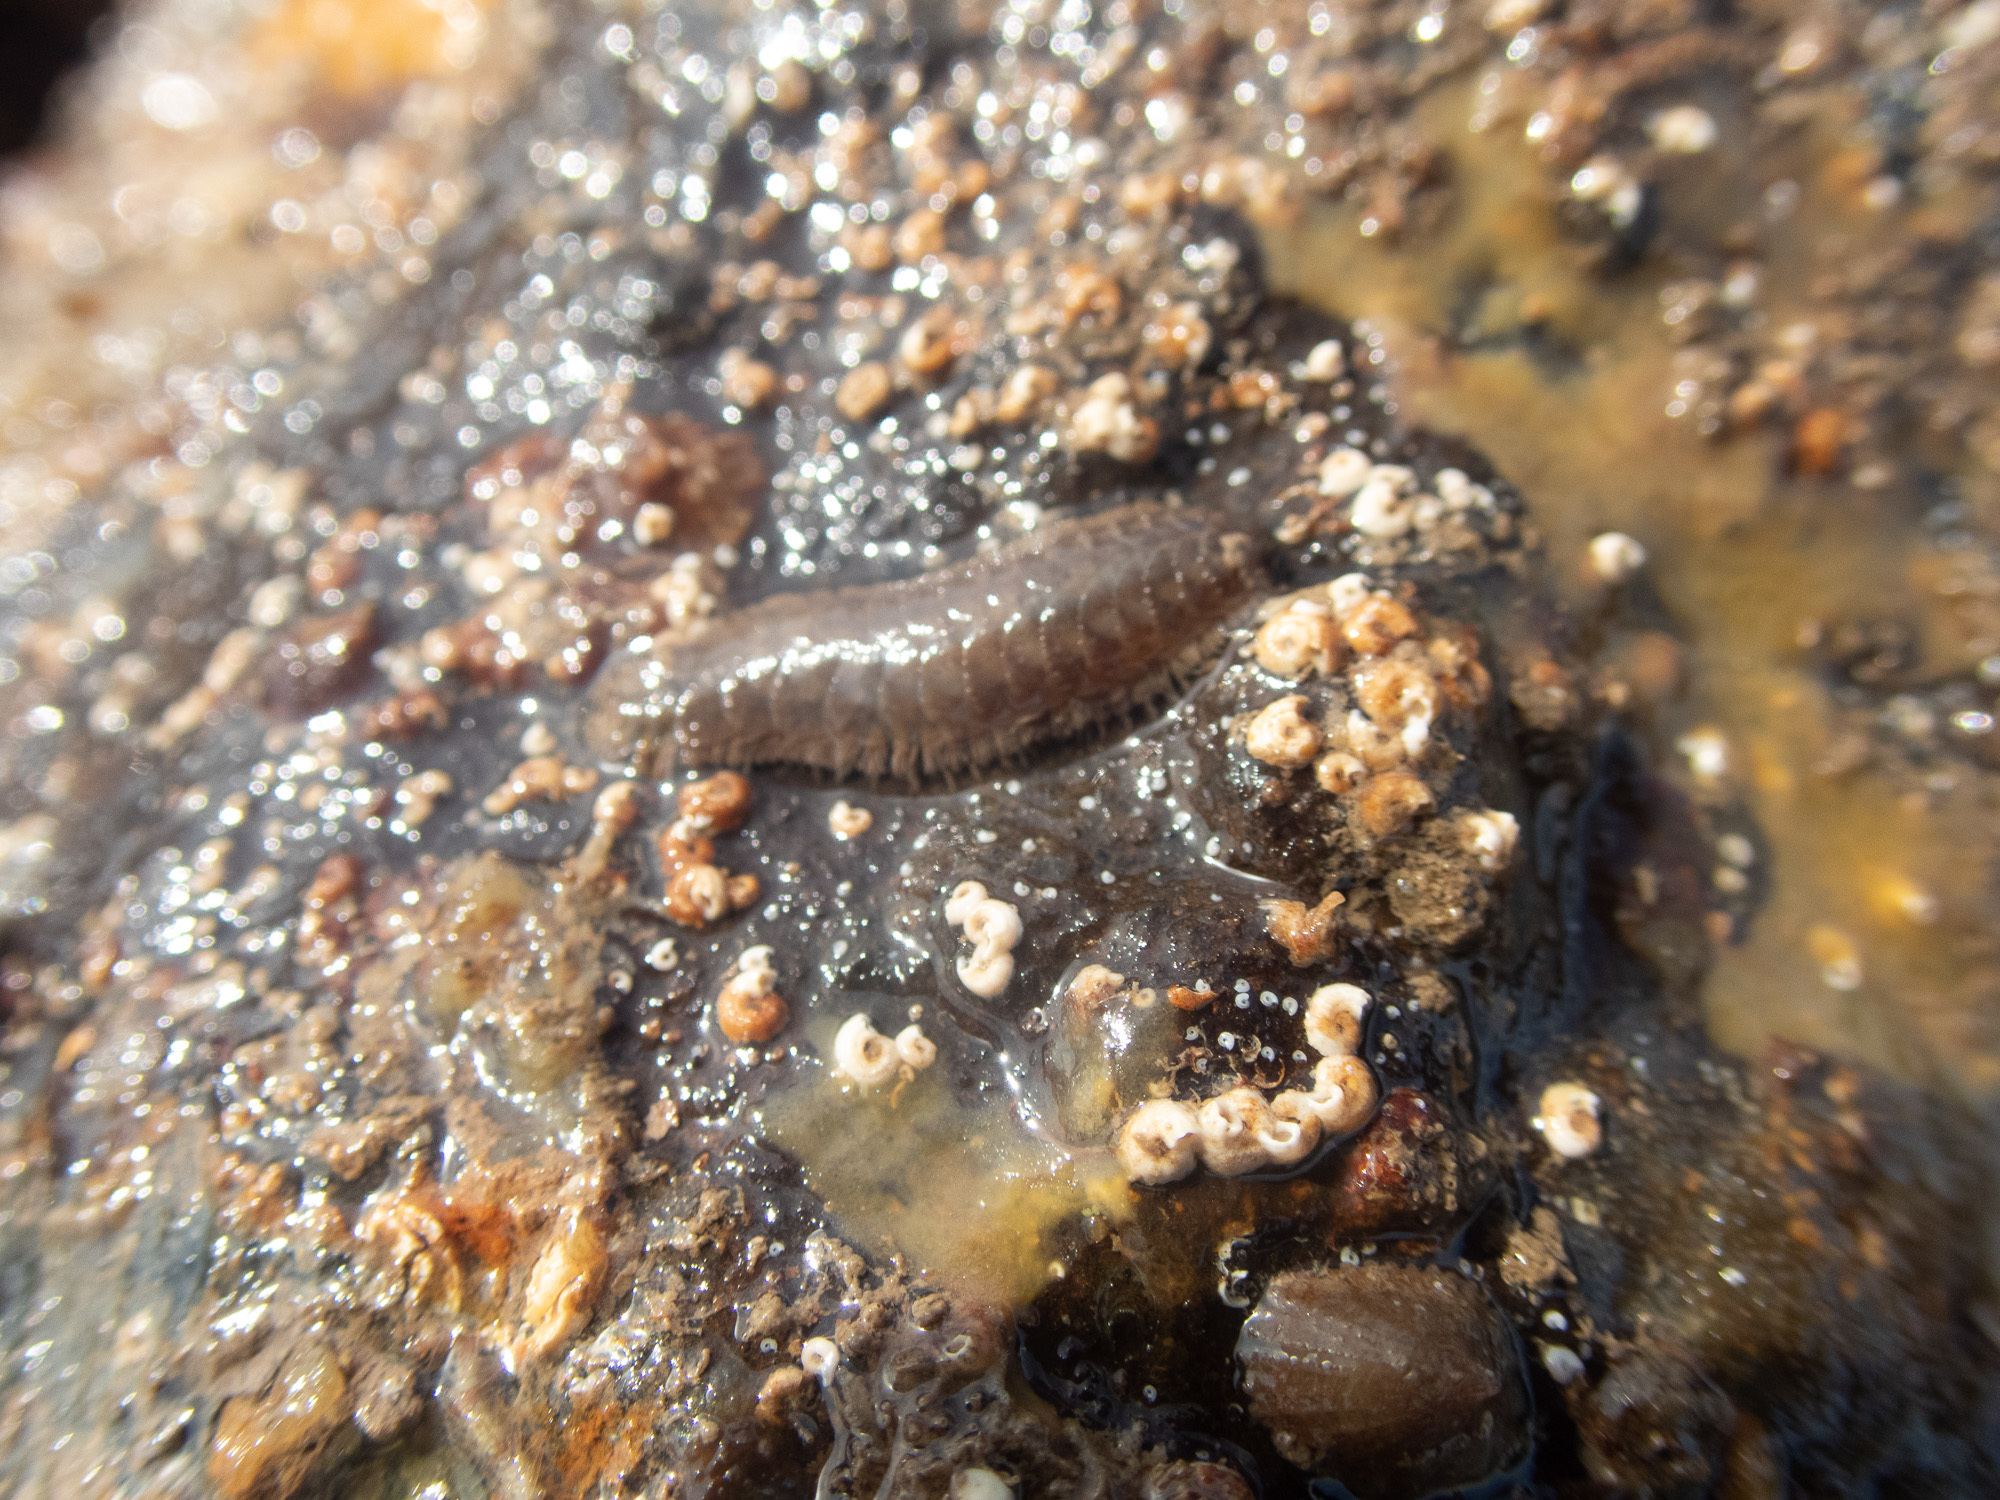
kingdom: Animalia
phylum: Annelida
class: Polychaeta
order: Phyllodocida
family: Polynoidae
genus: Harmothoe
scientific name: Harmothoe impar
